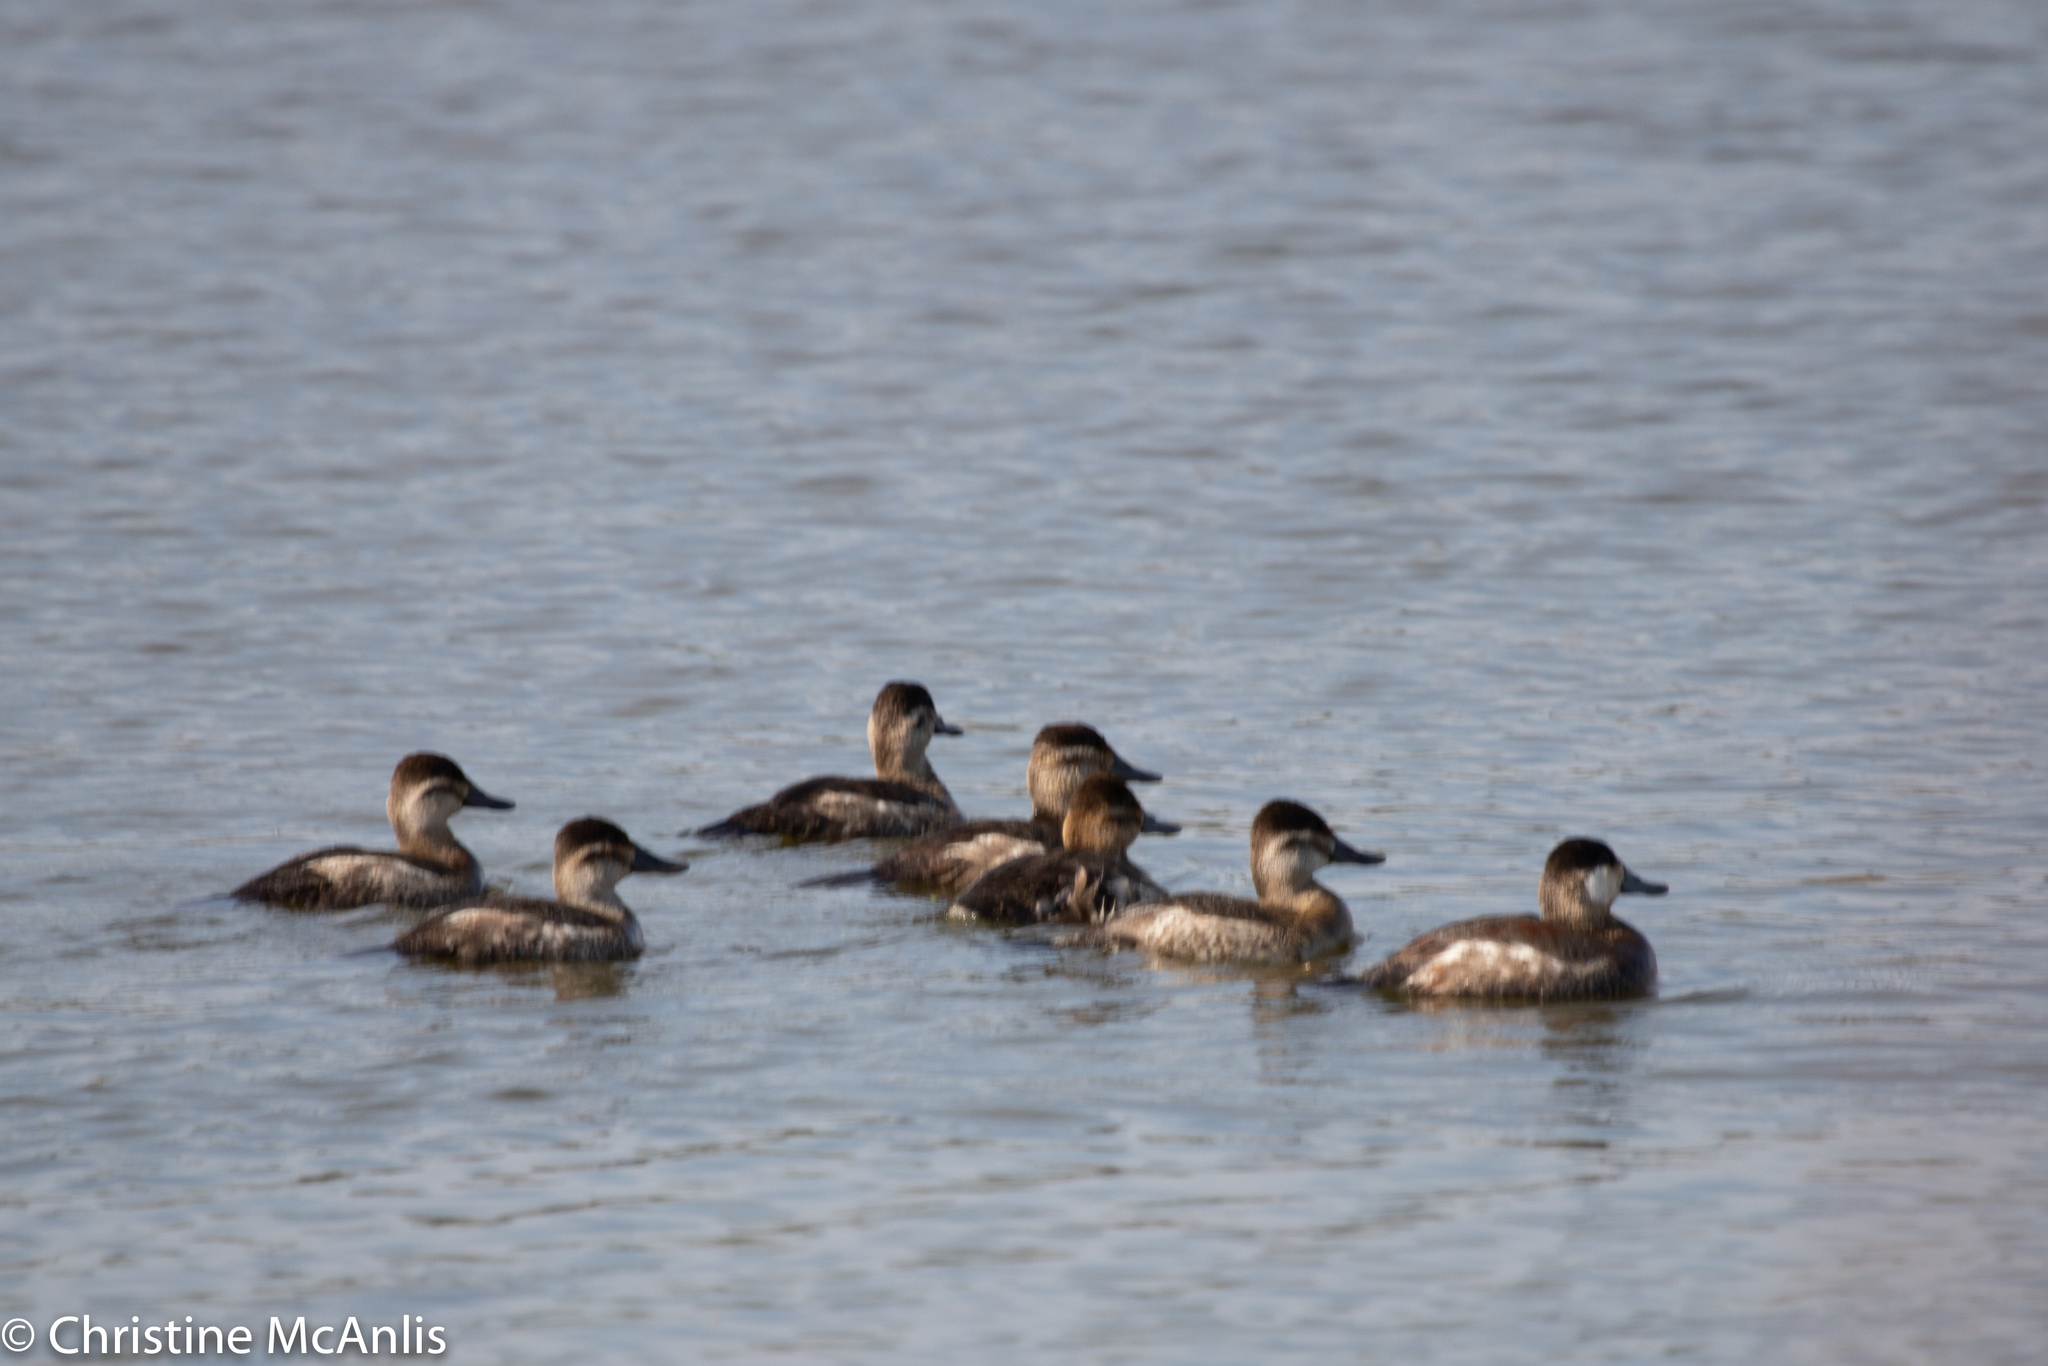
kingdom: Animalia
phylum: Chordata
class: Aves
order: Anseriformes
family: Anatidae
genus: Oxyura
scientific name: Oxyura jamaicensis
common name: Ruddy duck
